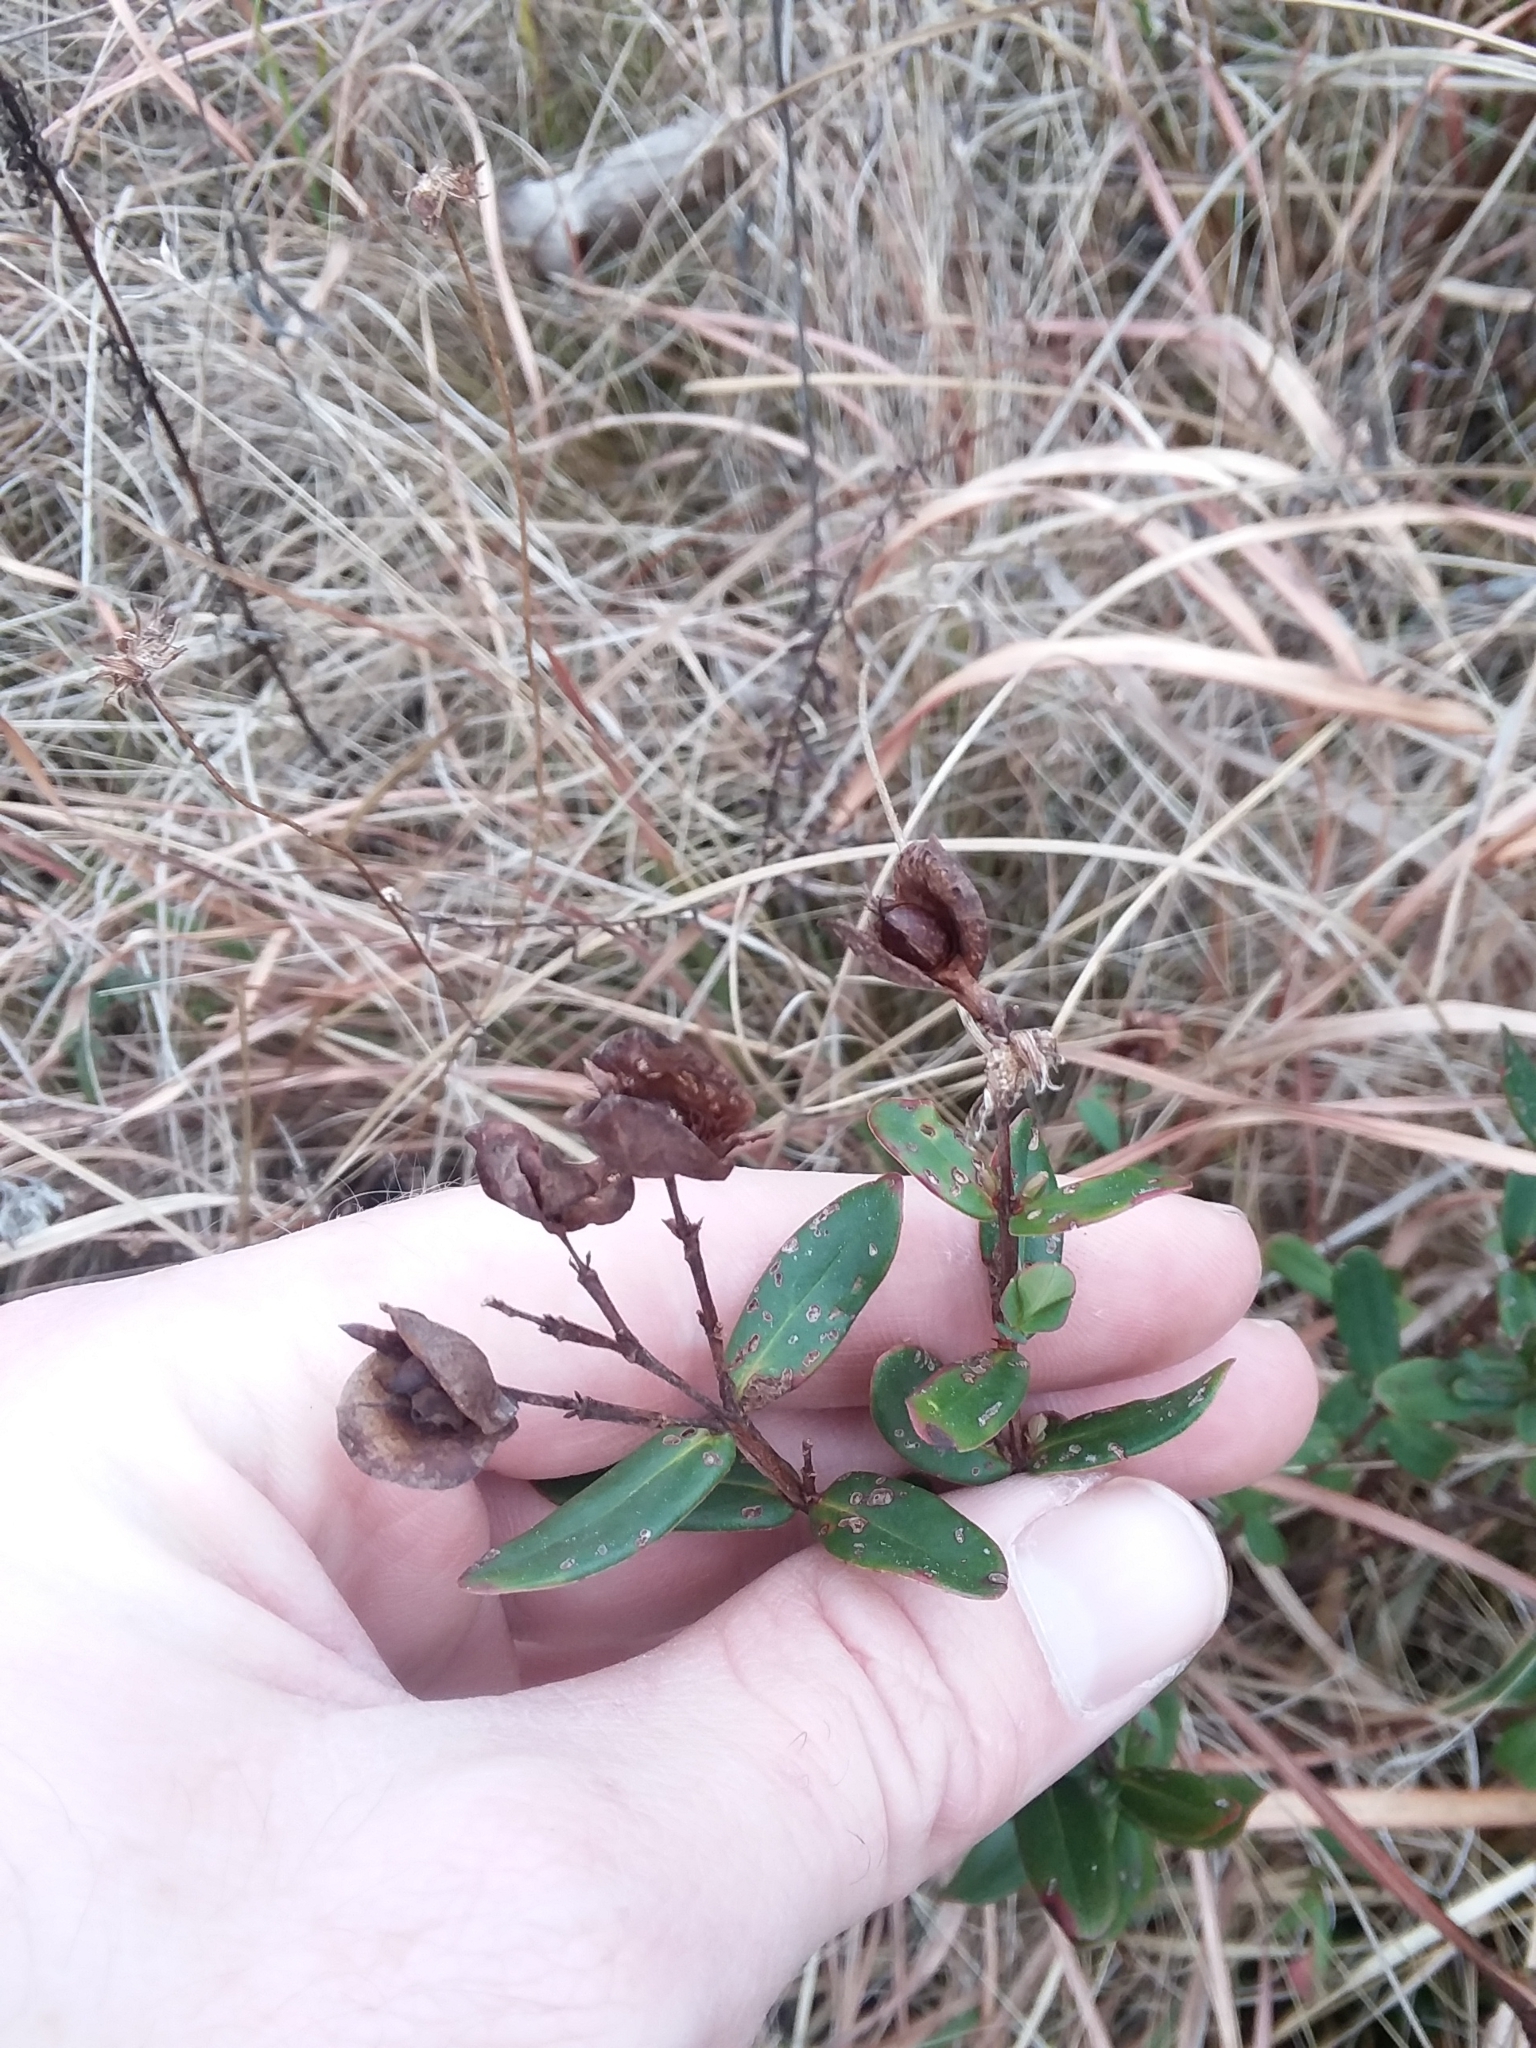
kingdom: Plantae
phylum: Tracheophyta
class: Magnoliopsida
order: Malpighiales
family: Hypericaceae
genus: Hypericum
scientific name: Hypericum crux-andreae
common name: St.-peter's-wort
